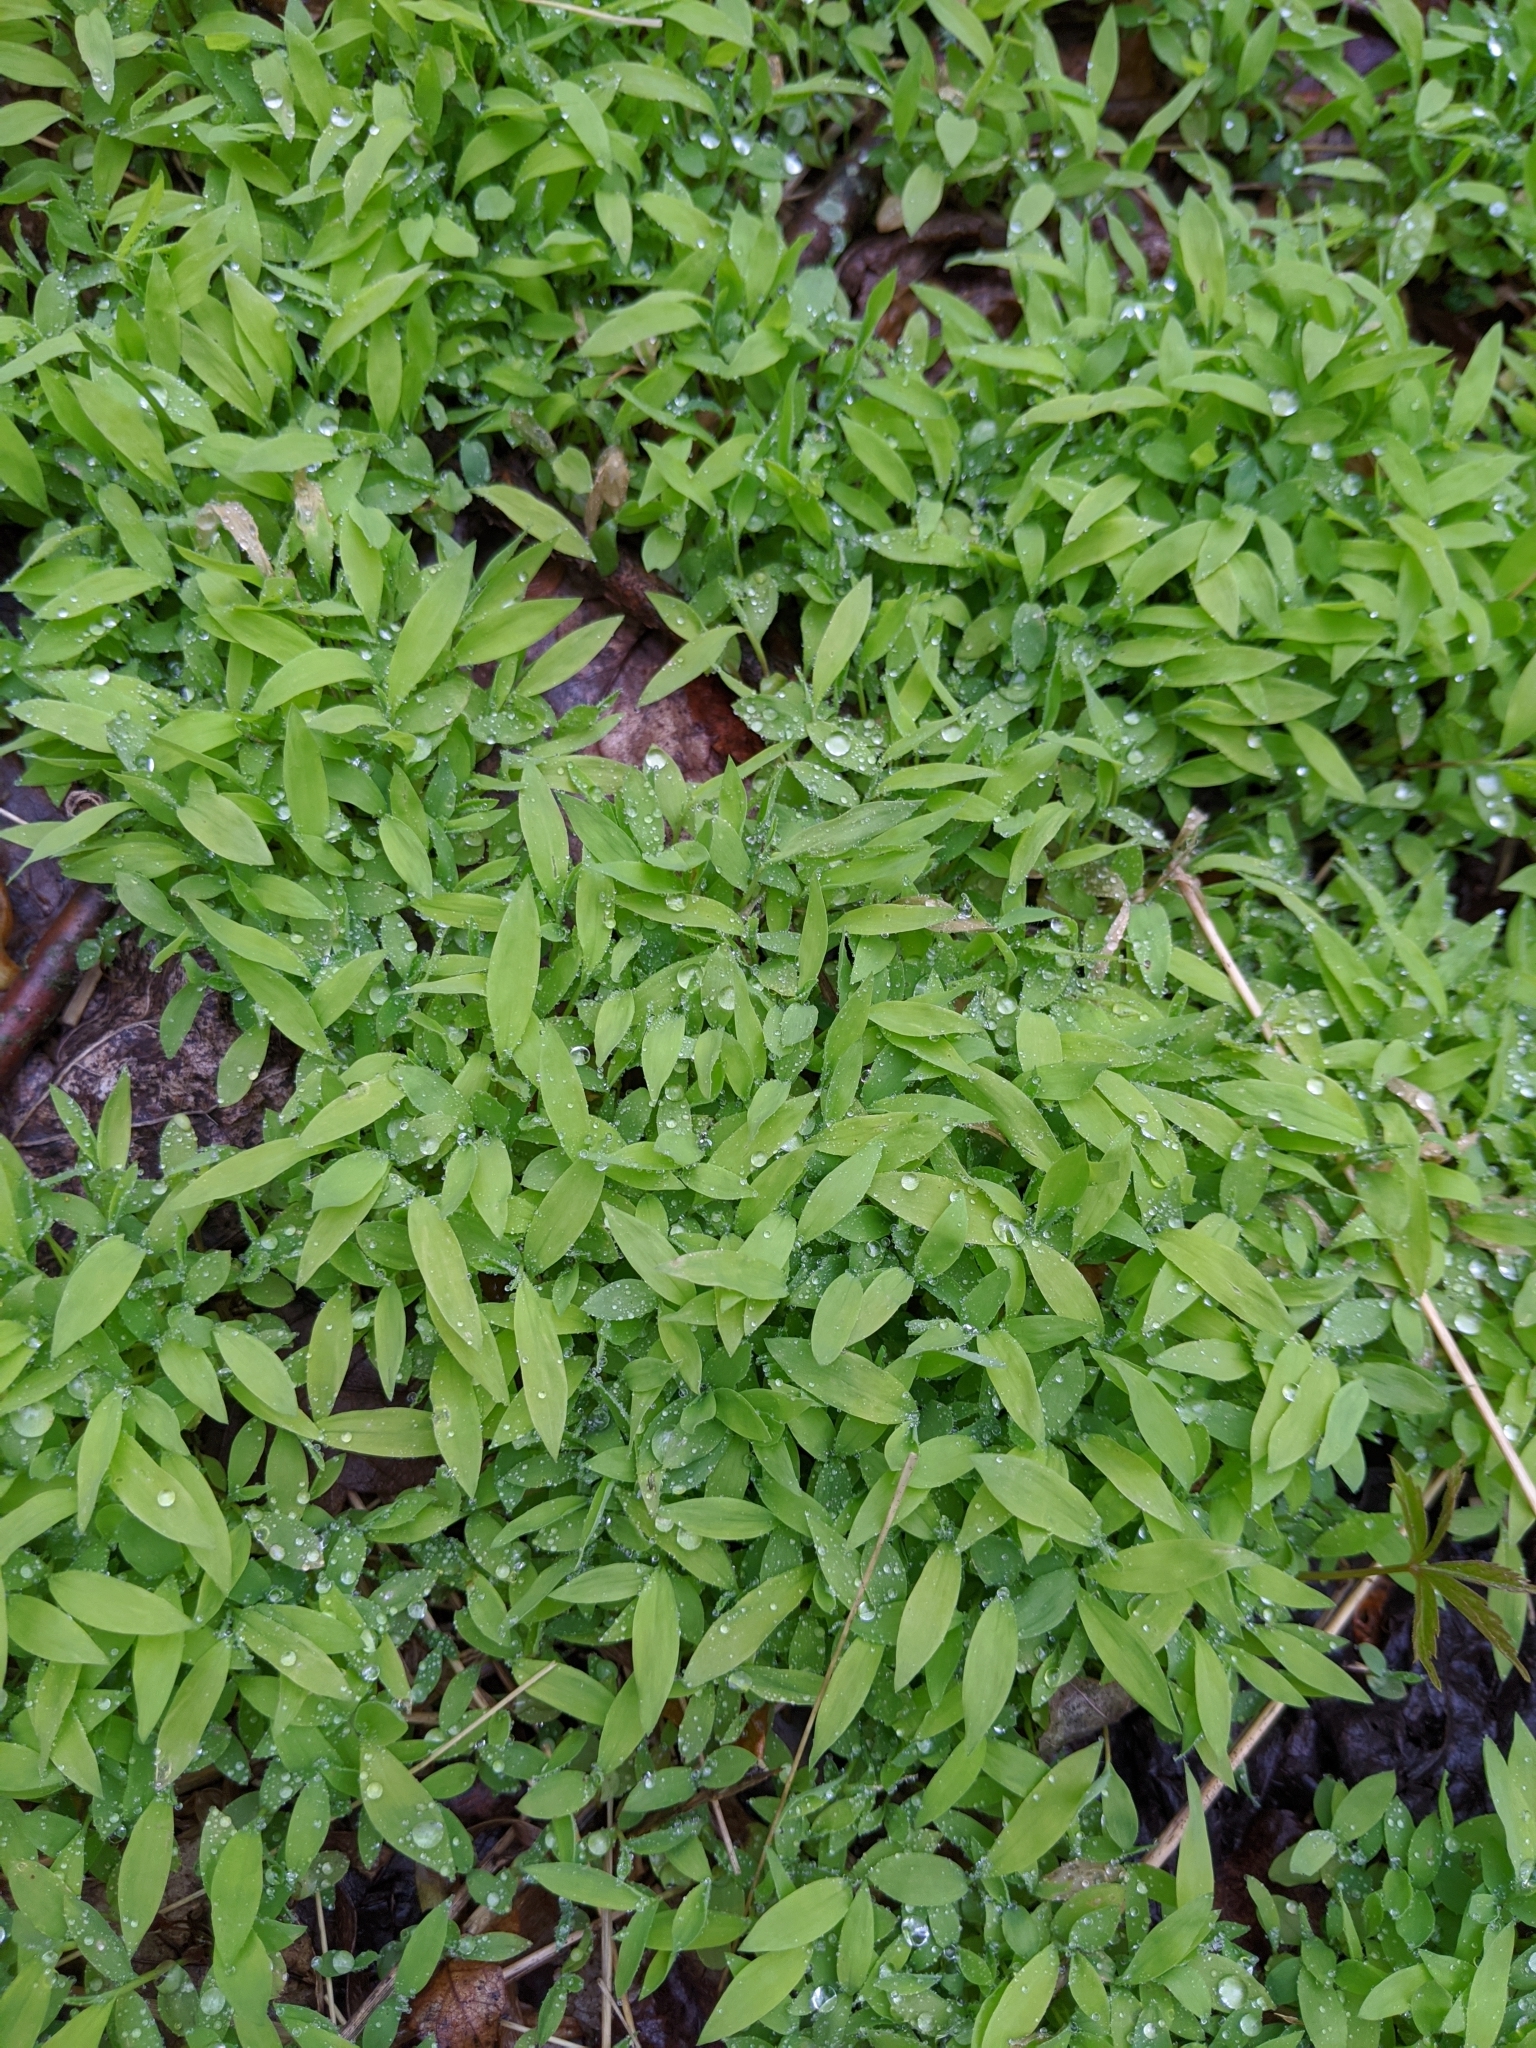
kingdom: Plantae
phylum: Tracheophyta
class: Liliopsida
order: Poales
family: Poaceae
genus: Microstegium
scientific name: Microstegium vimineum
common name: Japanese stiltgrass
